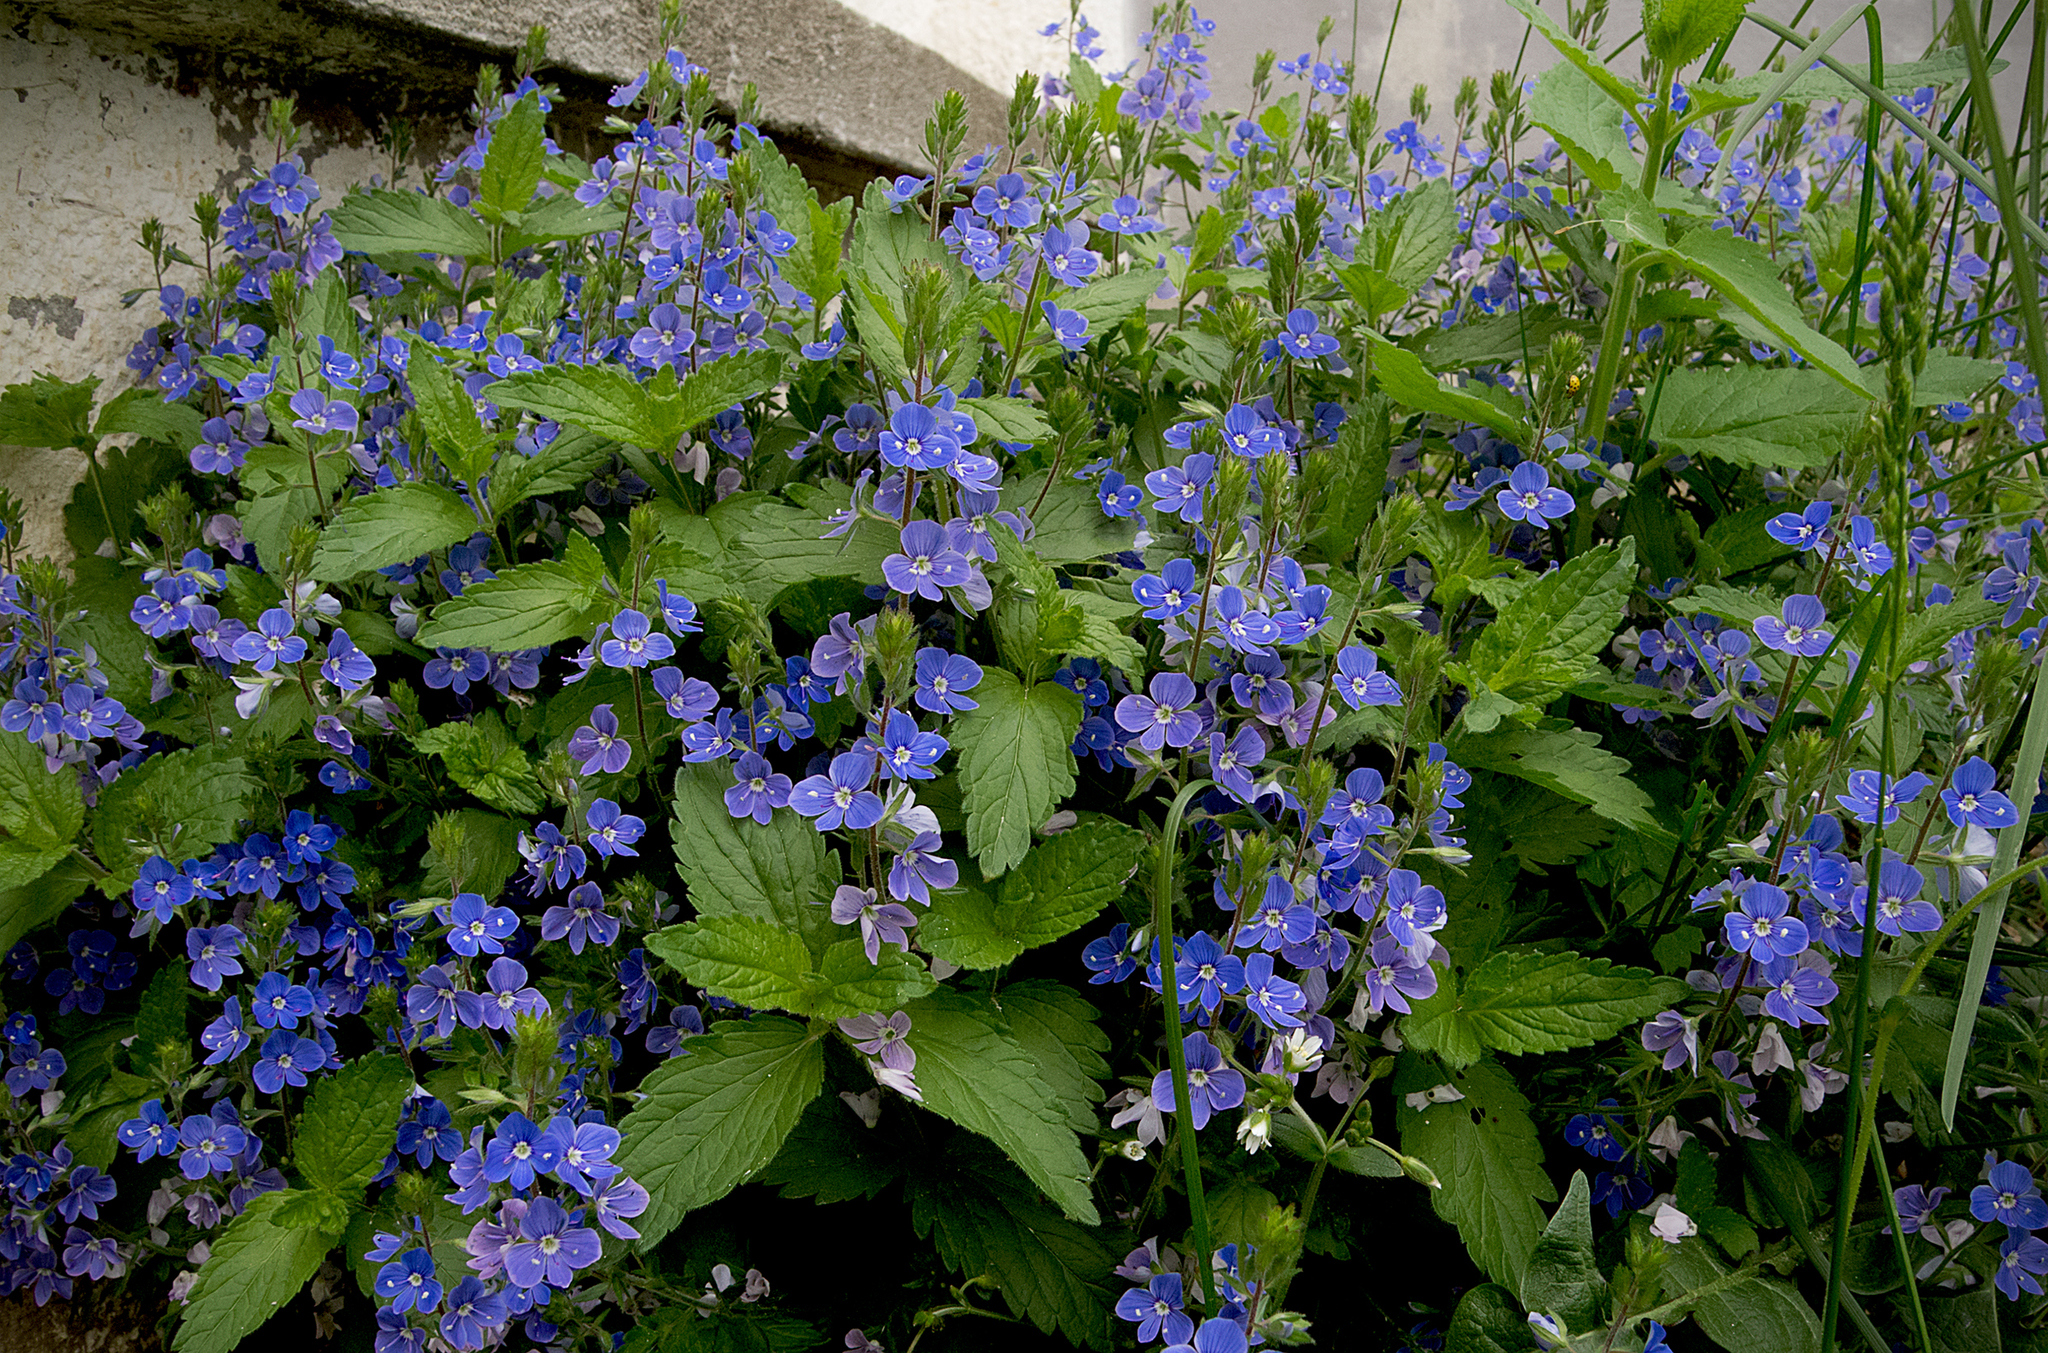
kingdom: Plantae
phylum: Tracheophyta
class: Magnoliopsida
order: Lamiales
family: Plantaginaceae
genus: Veronica
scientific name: Veronica chamaedrys
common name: Germander speedwell
